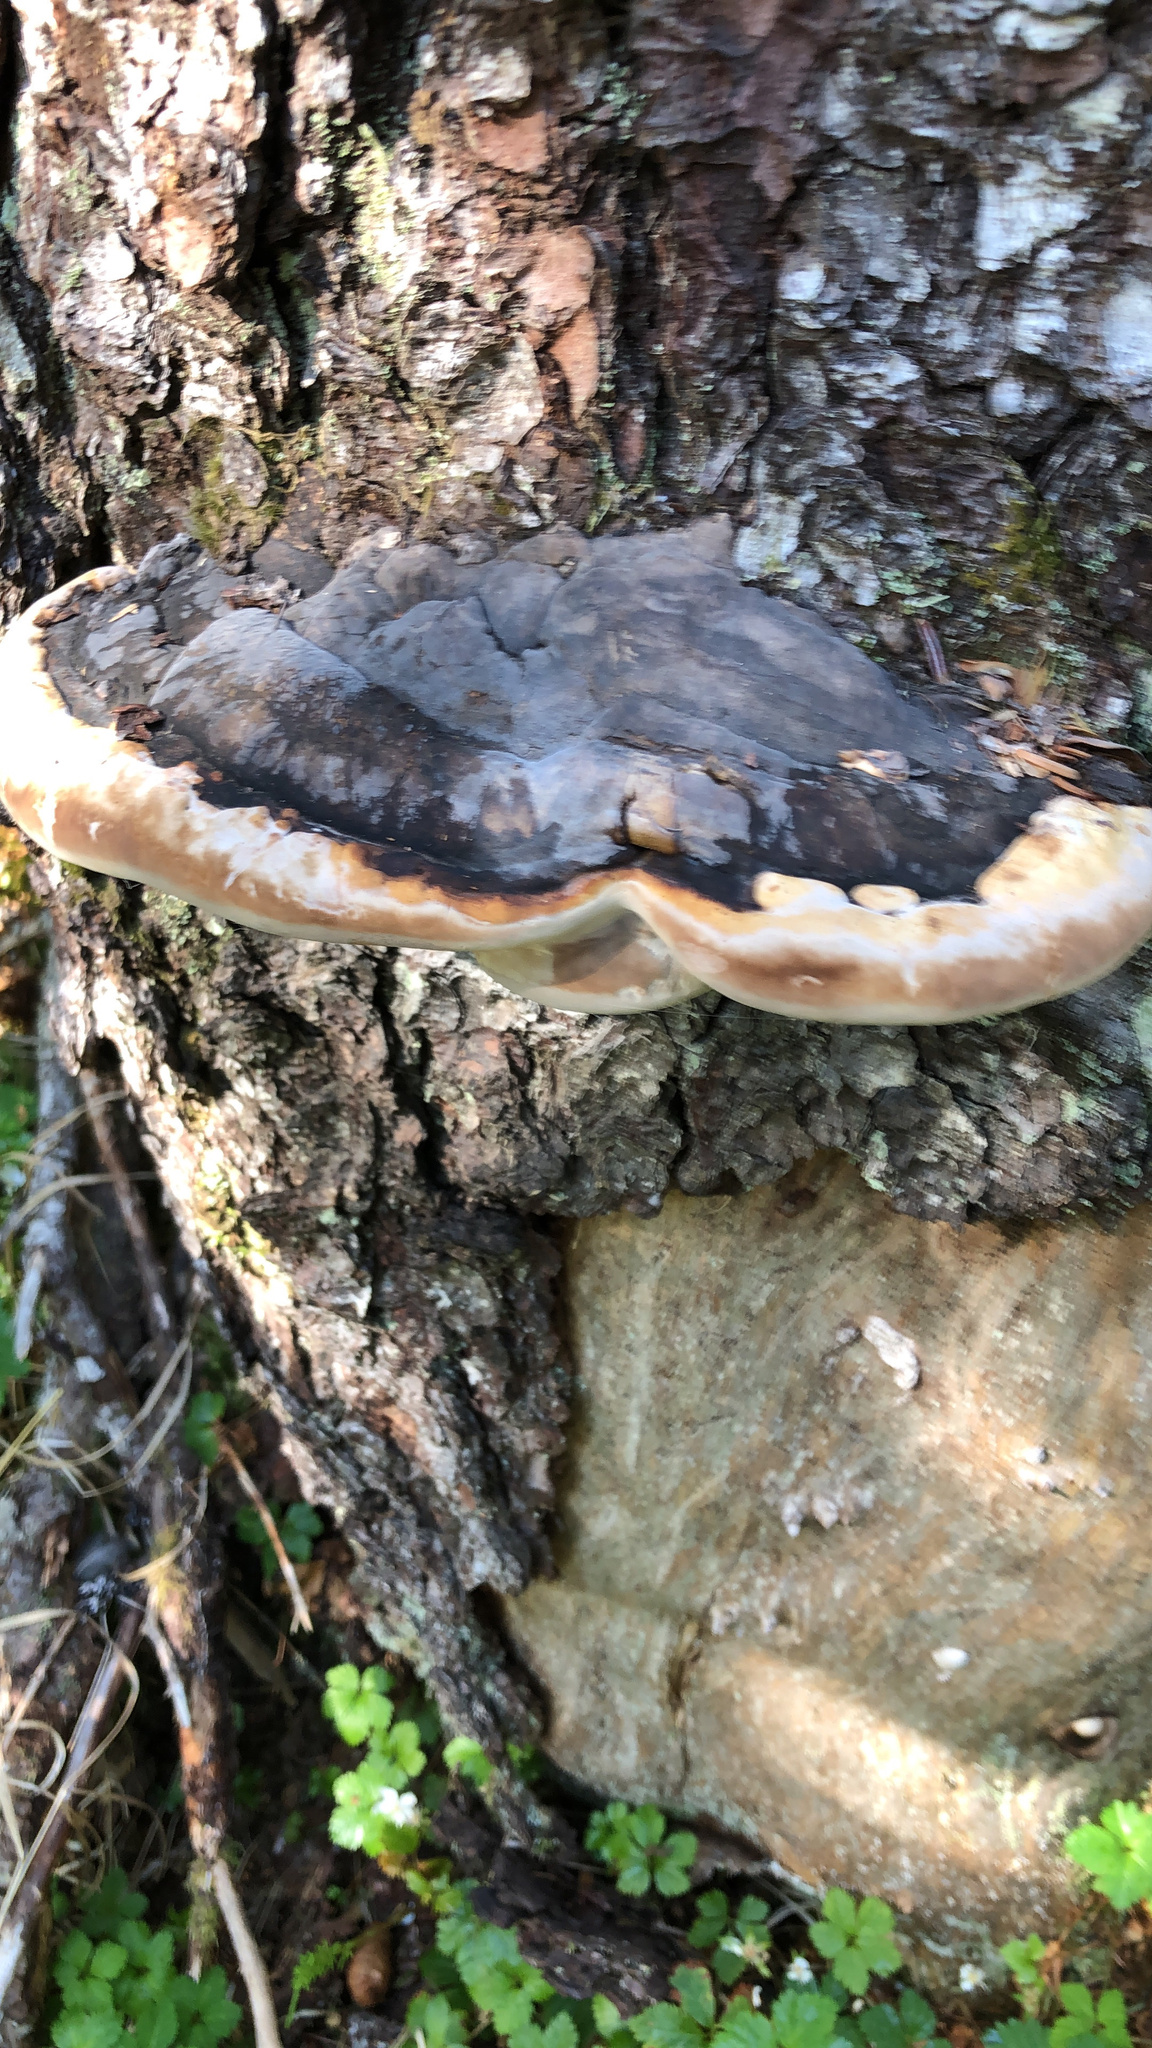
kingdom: Fungi
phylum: Basidiomycota
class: Agaricomycetes
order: Polyporales
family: Fomitopsidaceae
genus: Fomitopsis
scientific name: Fomitopsis ochracea
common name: American brown fomitopsis
